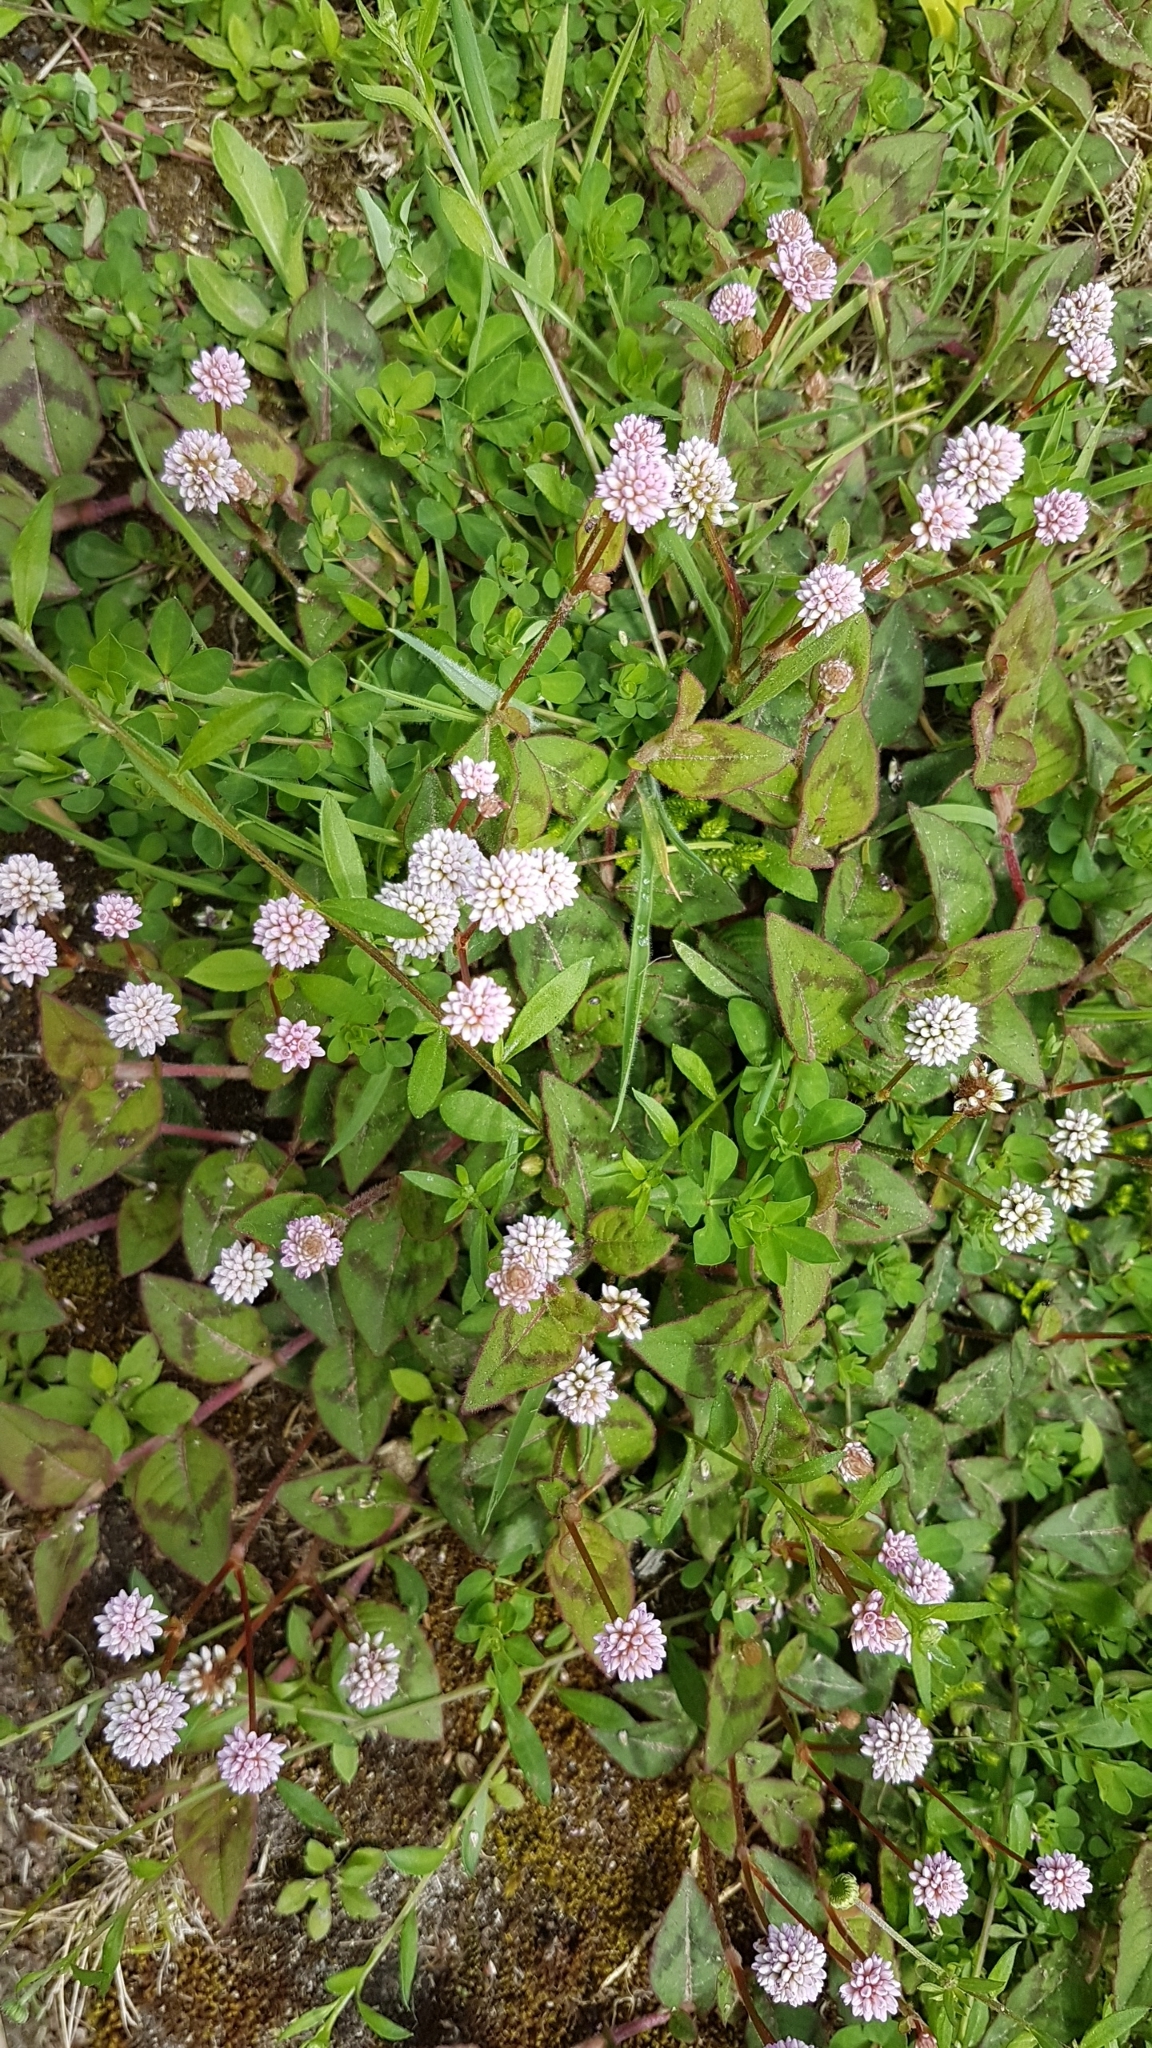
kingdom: Plantae
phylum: Tracheophyta
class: Magnoliopsida
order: Caryophyllales
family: Polygonaceae
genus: Persicaria
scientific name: Persicaria capitata
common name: Pinkhead smartweed
